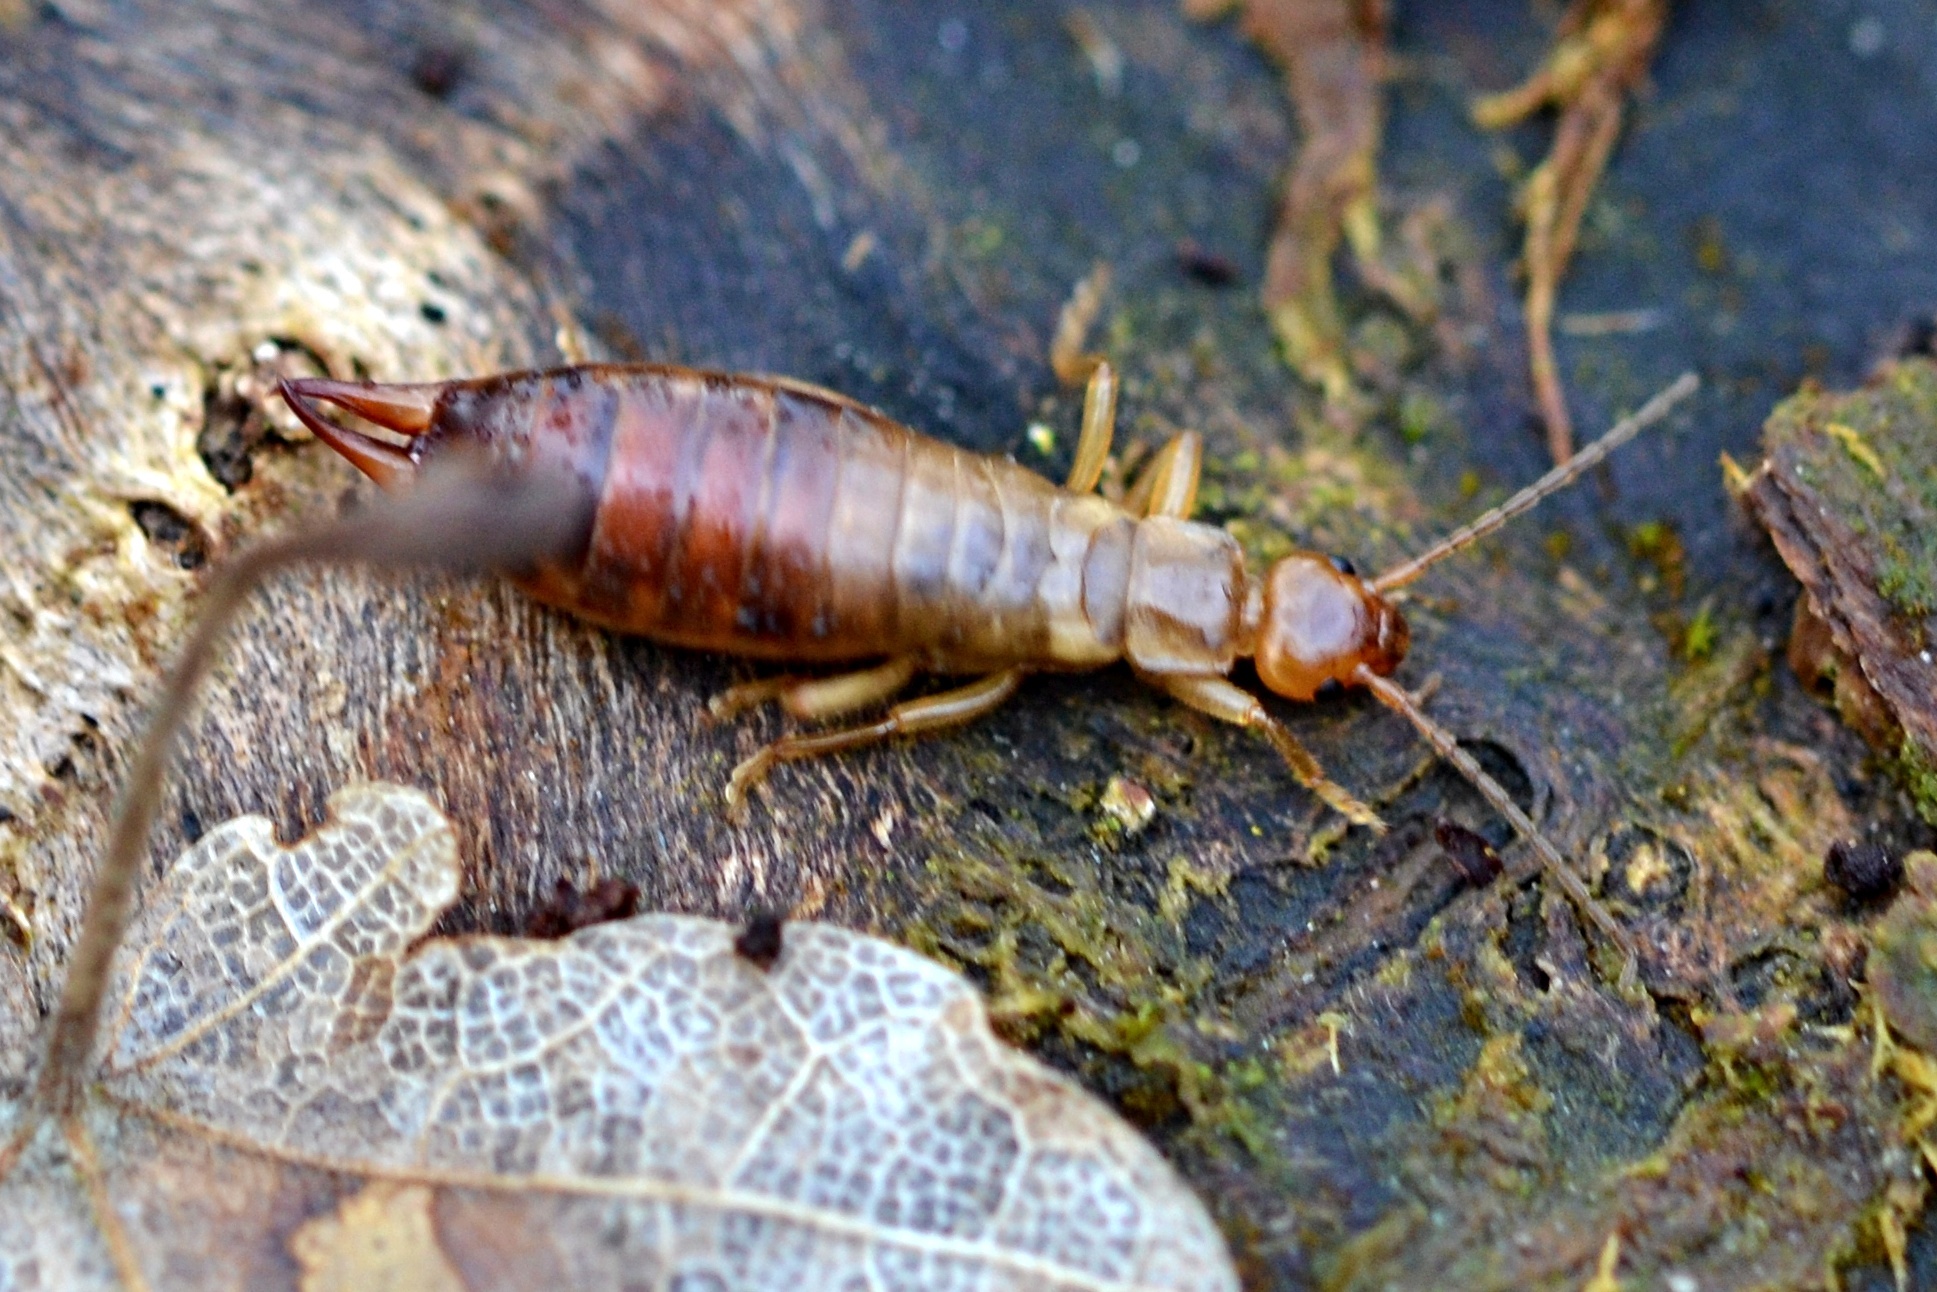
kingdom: Animalia
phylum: Arthropoda
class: Insecta
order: Dermaptera
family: Forficulidae
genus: Chelidurella
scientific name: Chelidurella acanthopygia
